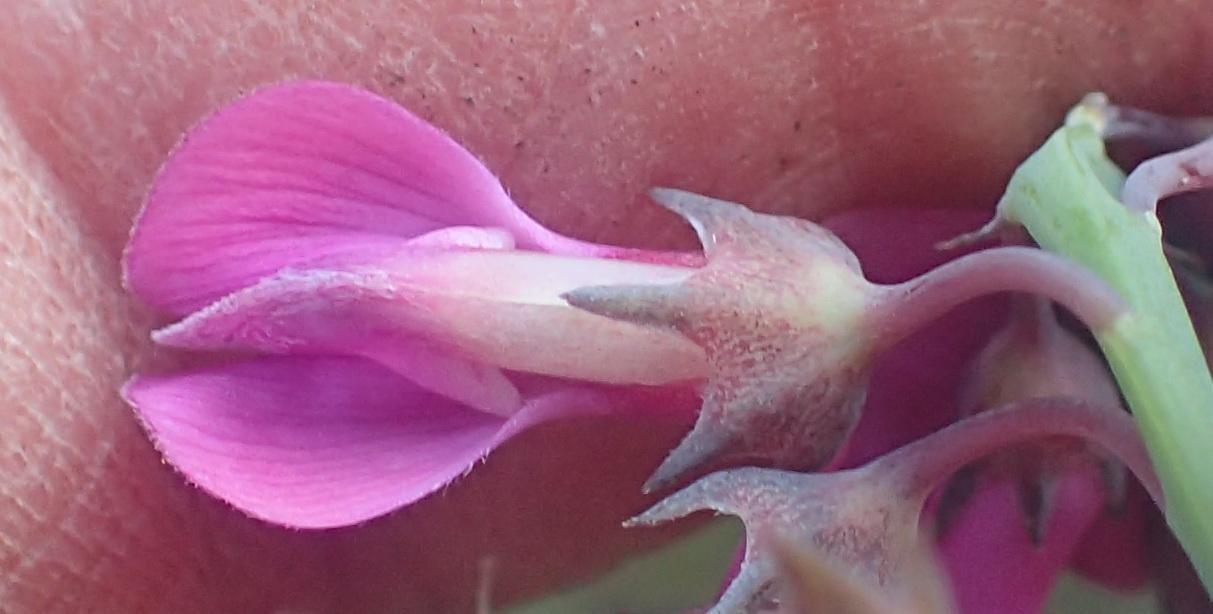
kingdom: Plantae
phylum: Tracheophyta
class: Magnoliopsida
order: Fabales
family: Fabaceae
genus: Indigofera
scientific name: Indigofera filifolia
